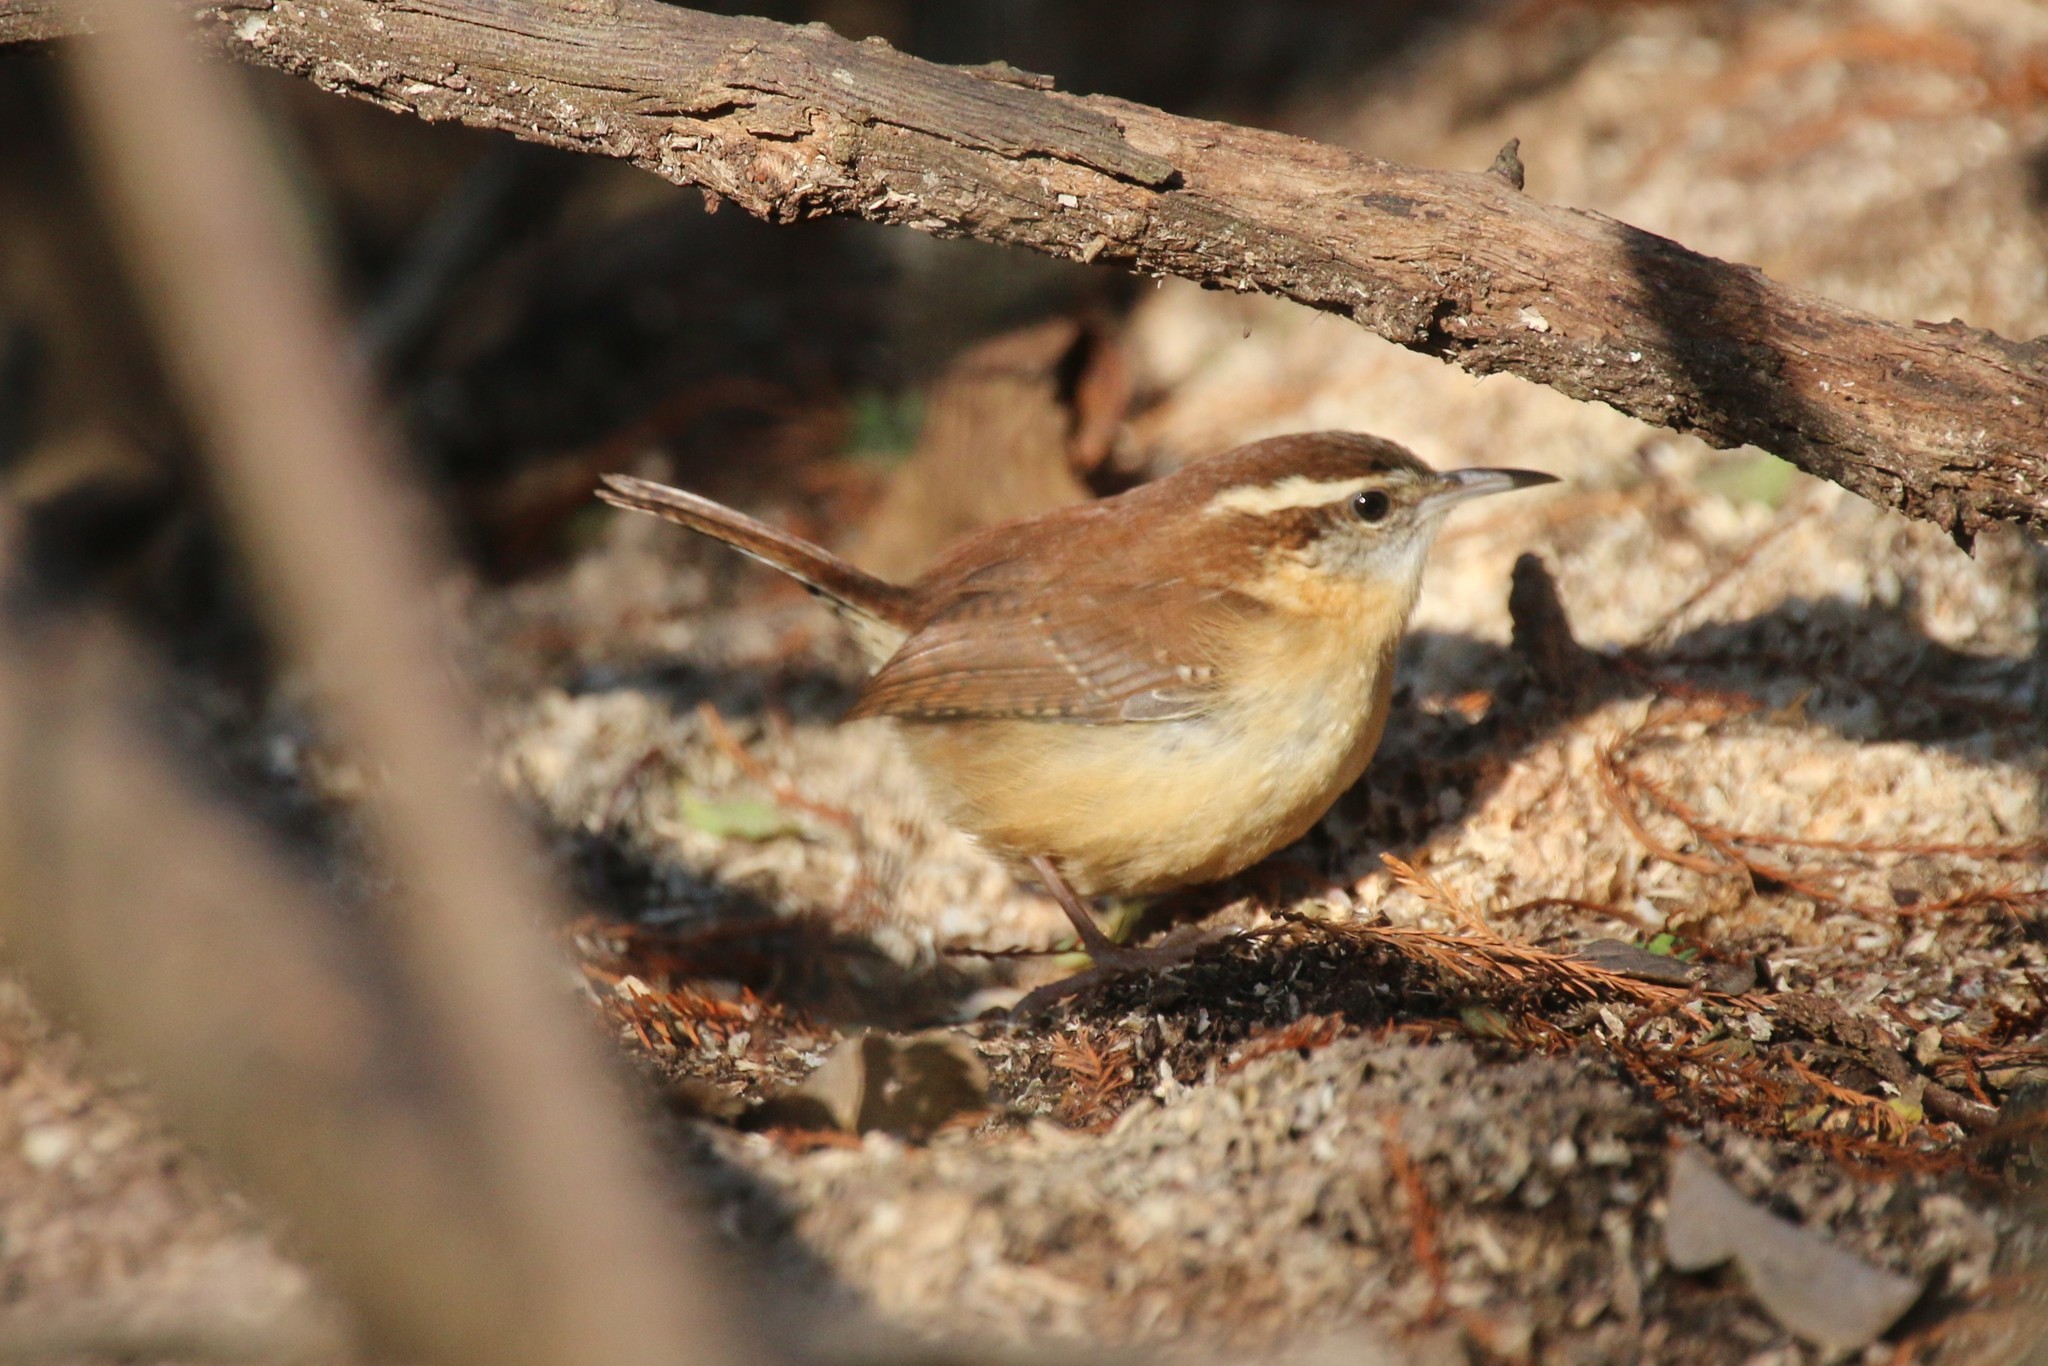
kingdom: Animalia
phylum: Chordata
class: Aves
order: Passeriformes
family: Troglodytidae
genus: Thryothorus
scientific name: Thryothorus ludovicianus
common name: Carolina wren
